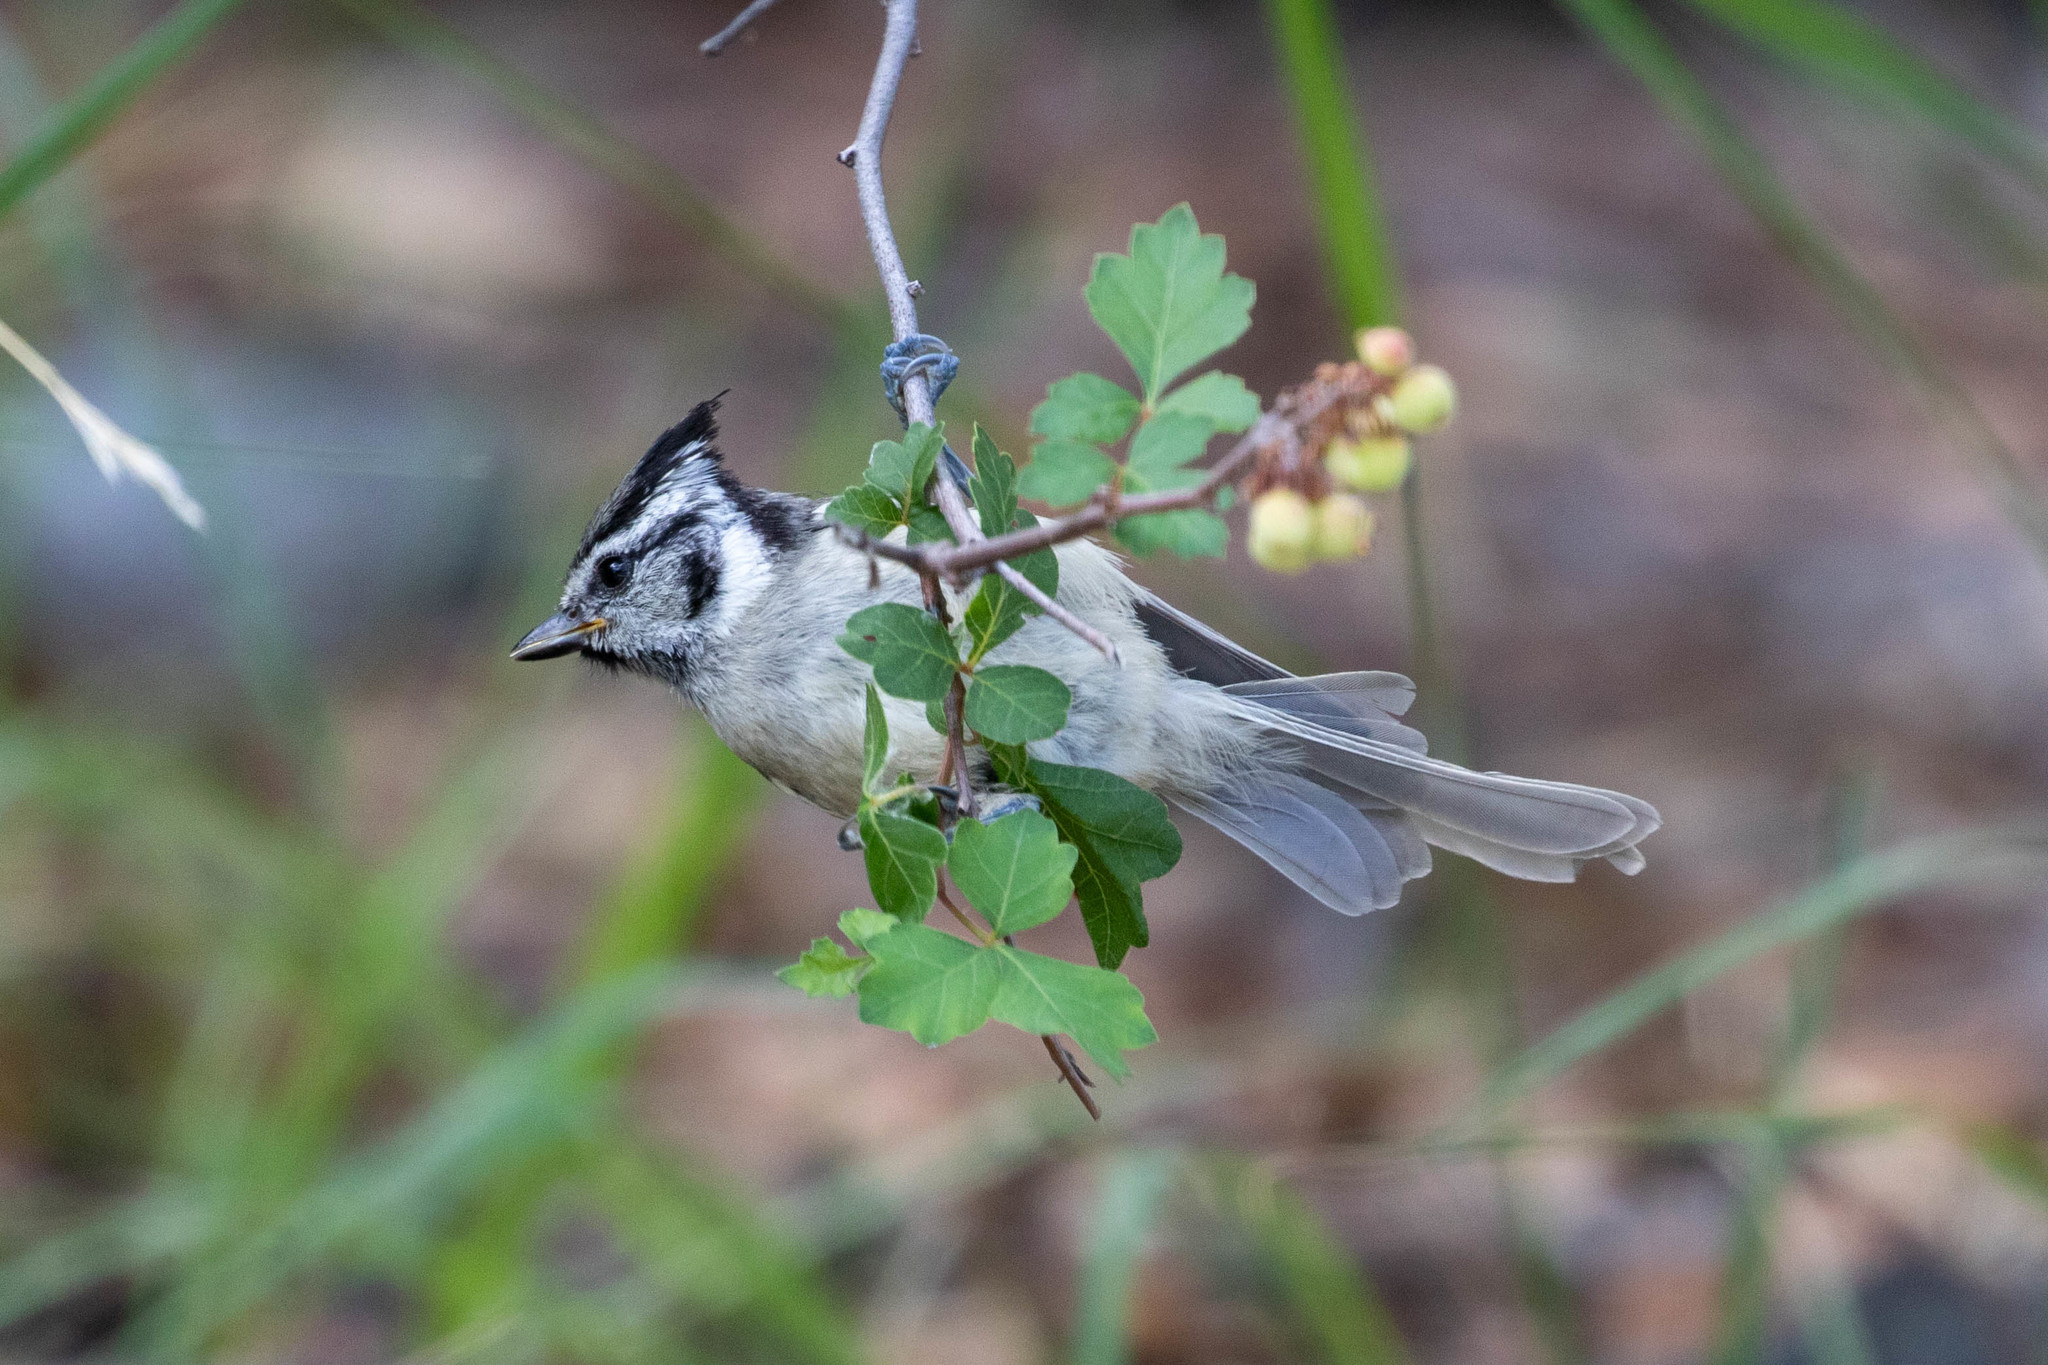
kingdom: Animalia
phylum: Chordata
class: Aves
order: Passeriformes
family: Paridae
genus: Baeolophus
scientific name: Baeolophus wollweberi
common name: Bridled titmouse
